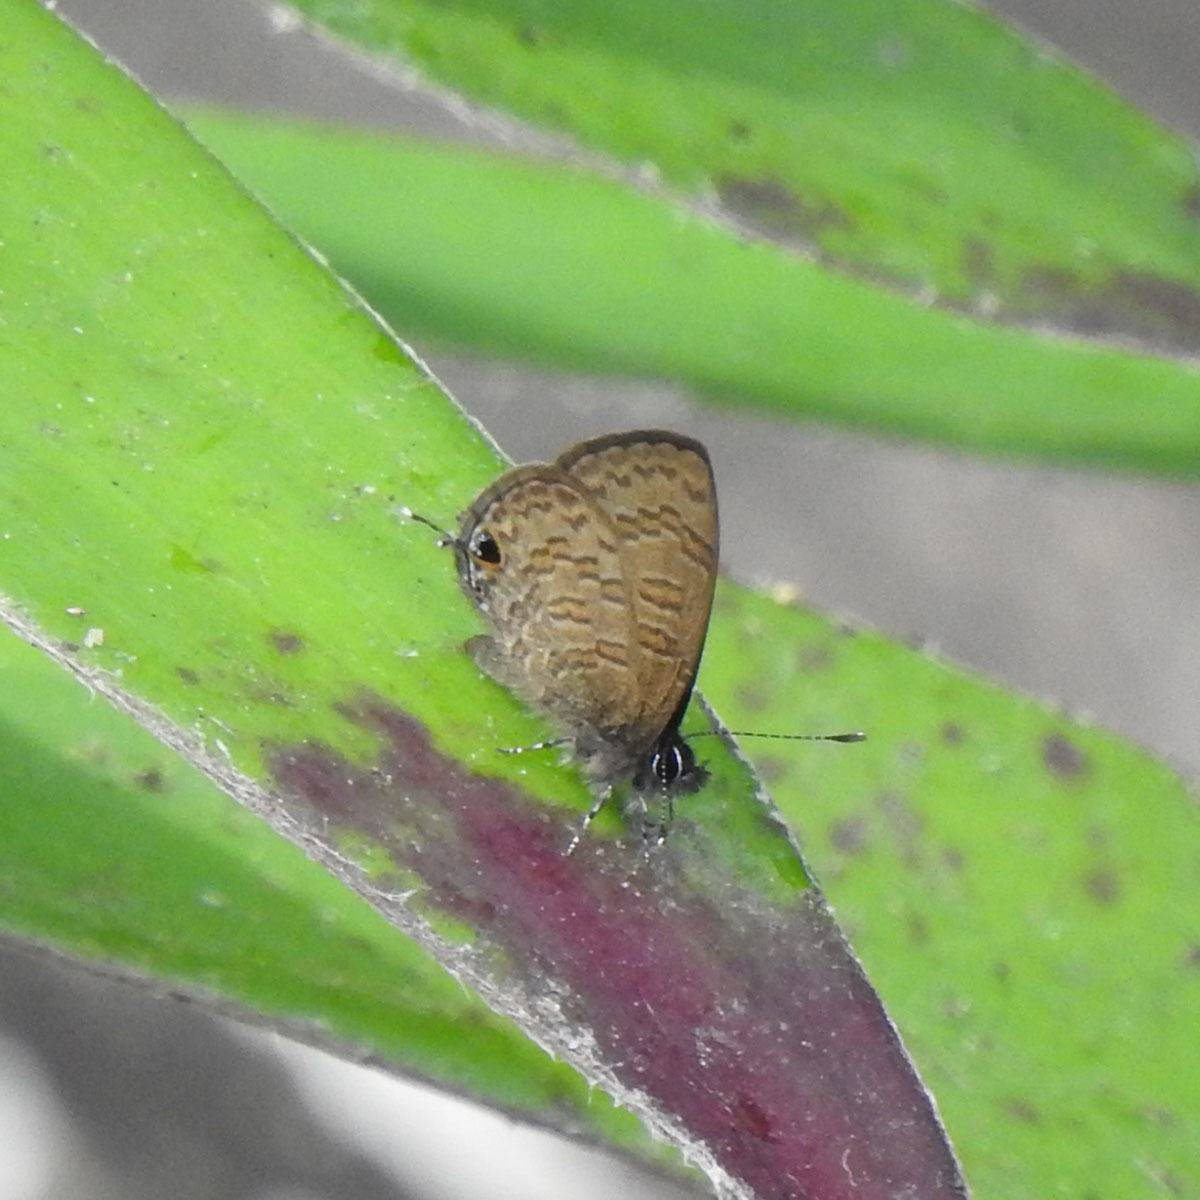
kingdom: Animalia
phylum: Arthropoda
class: Insecta
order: Lepidoptera
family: Lycaenidae
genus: Prosotas
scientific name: Prosotas nora
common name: Common line blue
